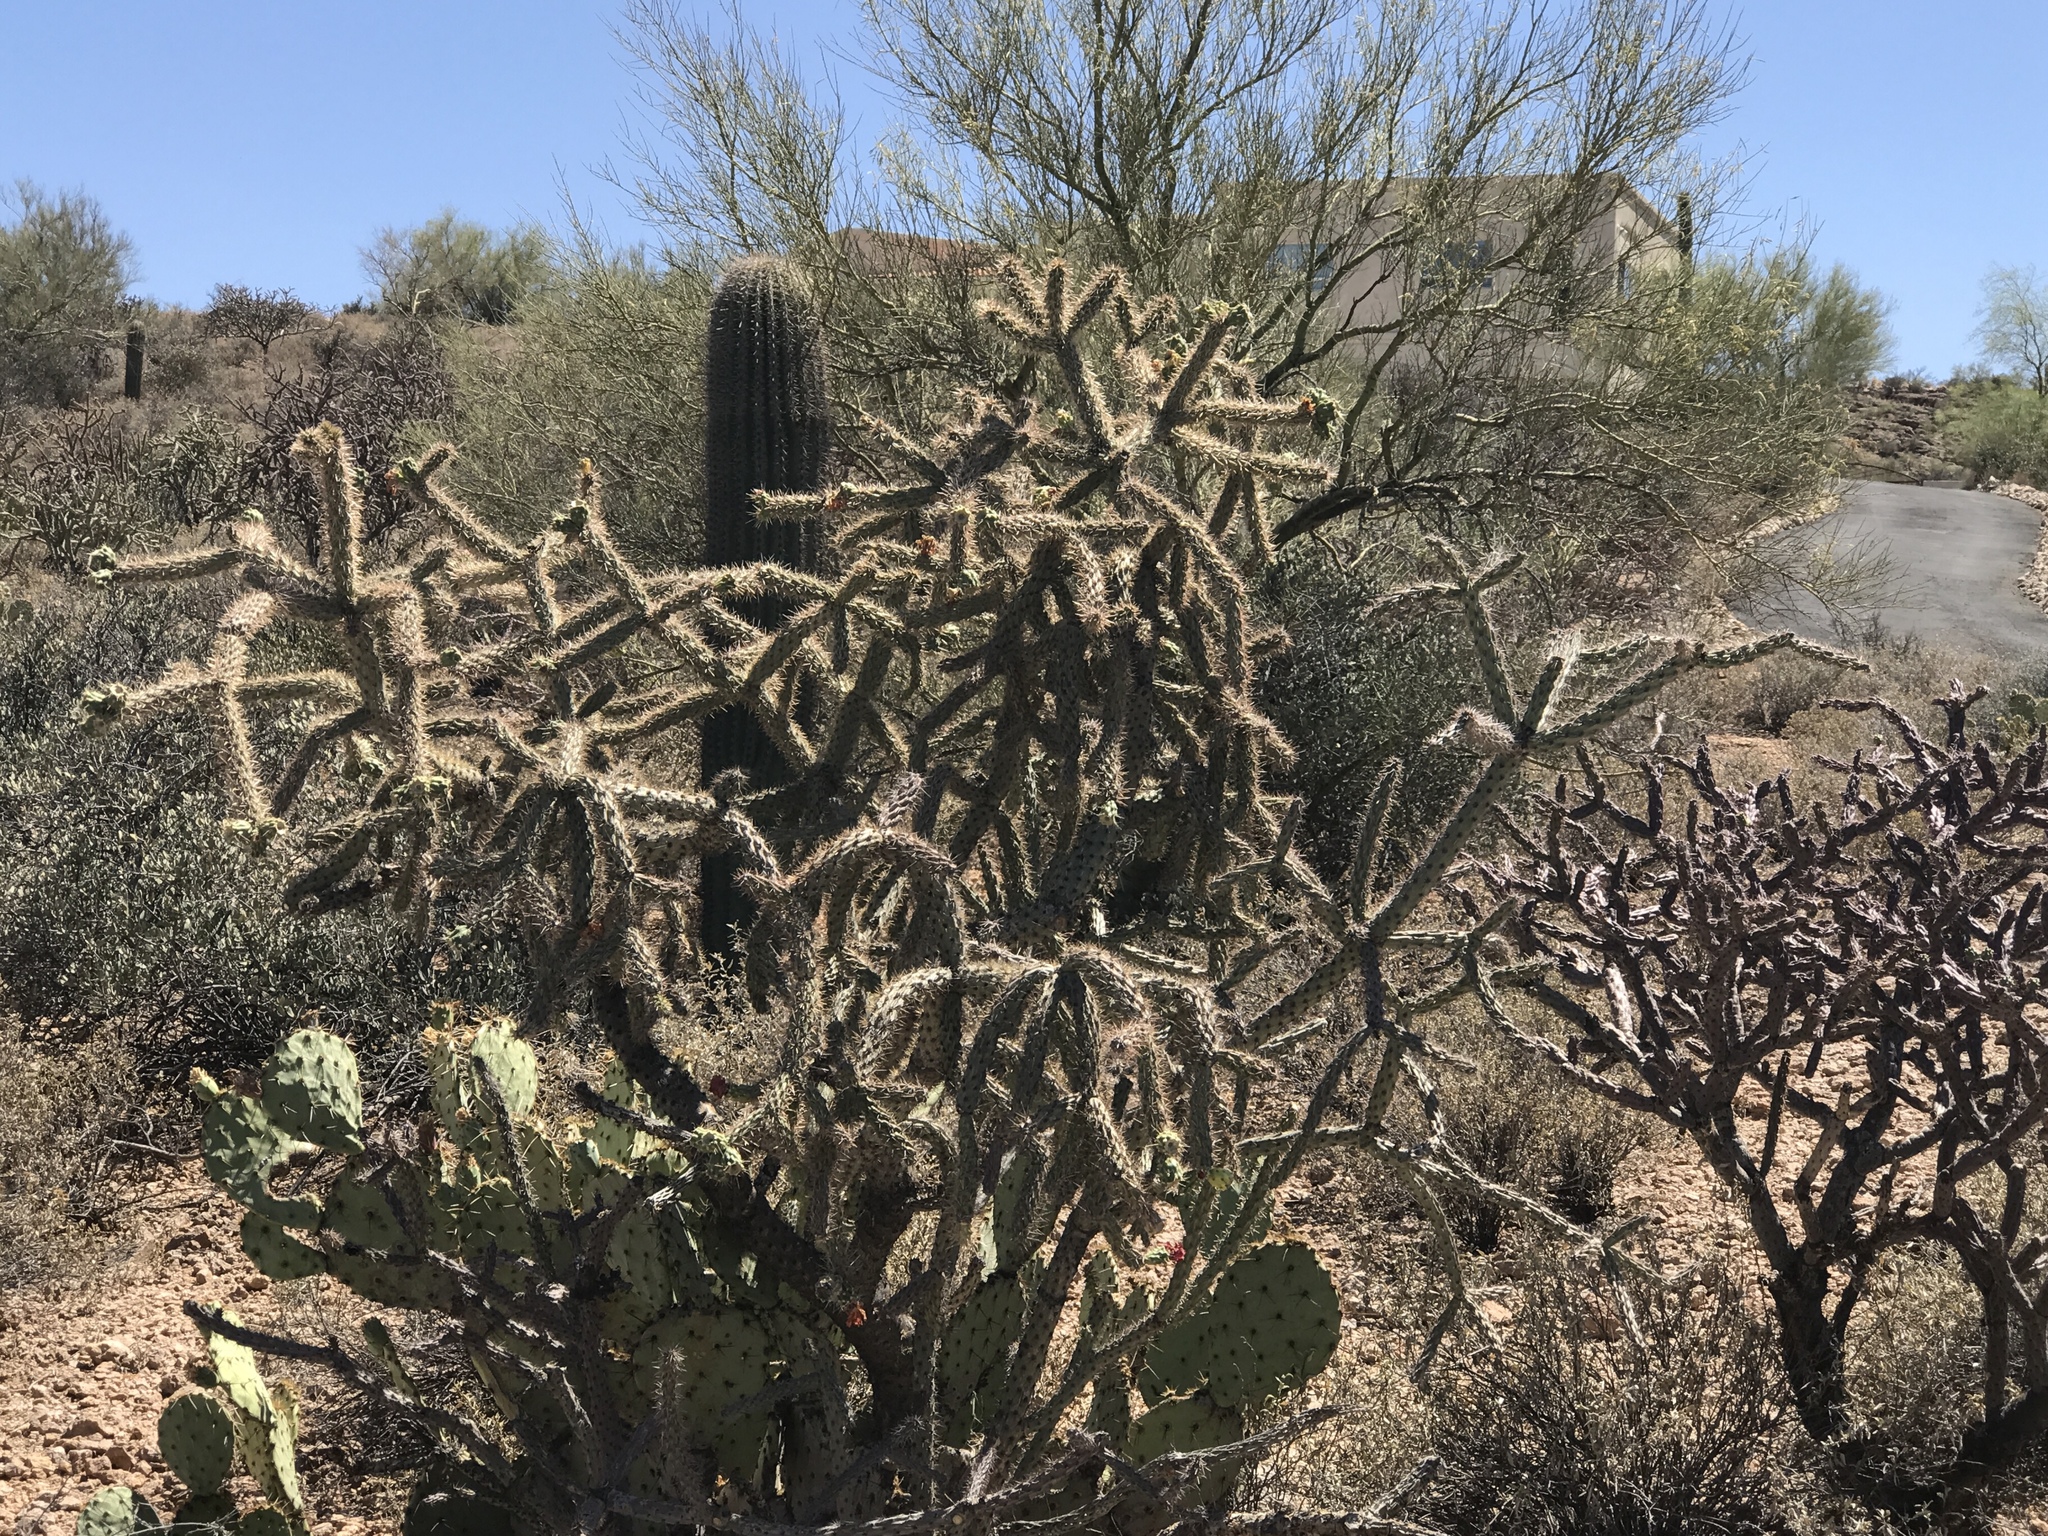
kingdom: Plantae
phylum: Tracheophyta
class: Magnoliopsida
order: Caryophyllales
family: Cactaceae
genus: Cylindropuntia
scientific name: Cylindropuntia imbricata
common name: Candelabrum cactus
